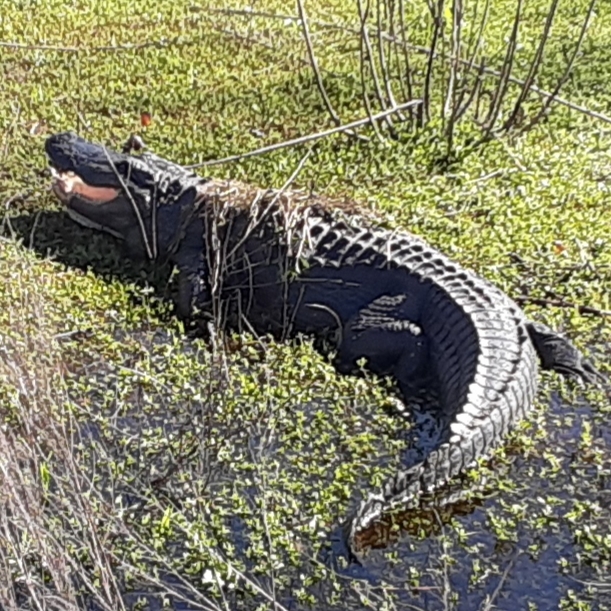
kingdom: Animalia
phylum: Chordata
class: Crocodylia
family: Alligatoridae
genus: Alligator
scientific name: Alligator mississippiensis
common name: American alligator
